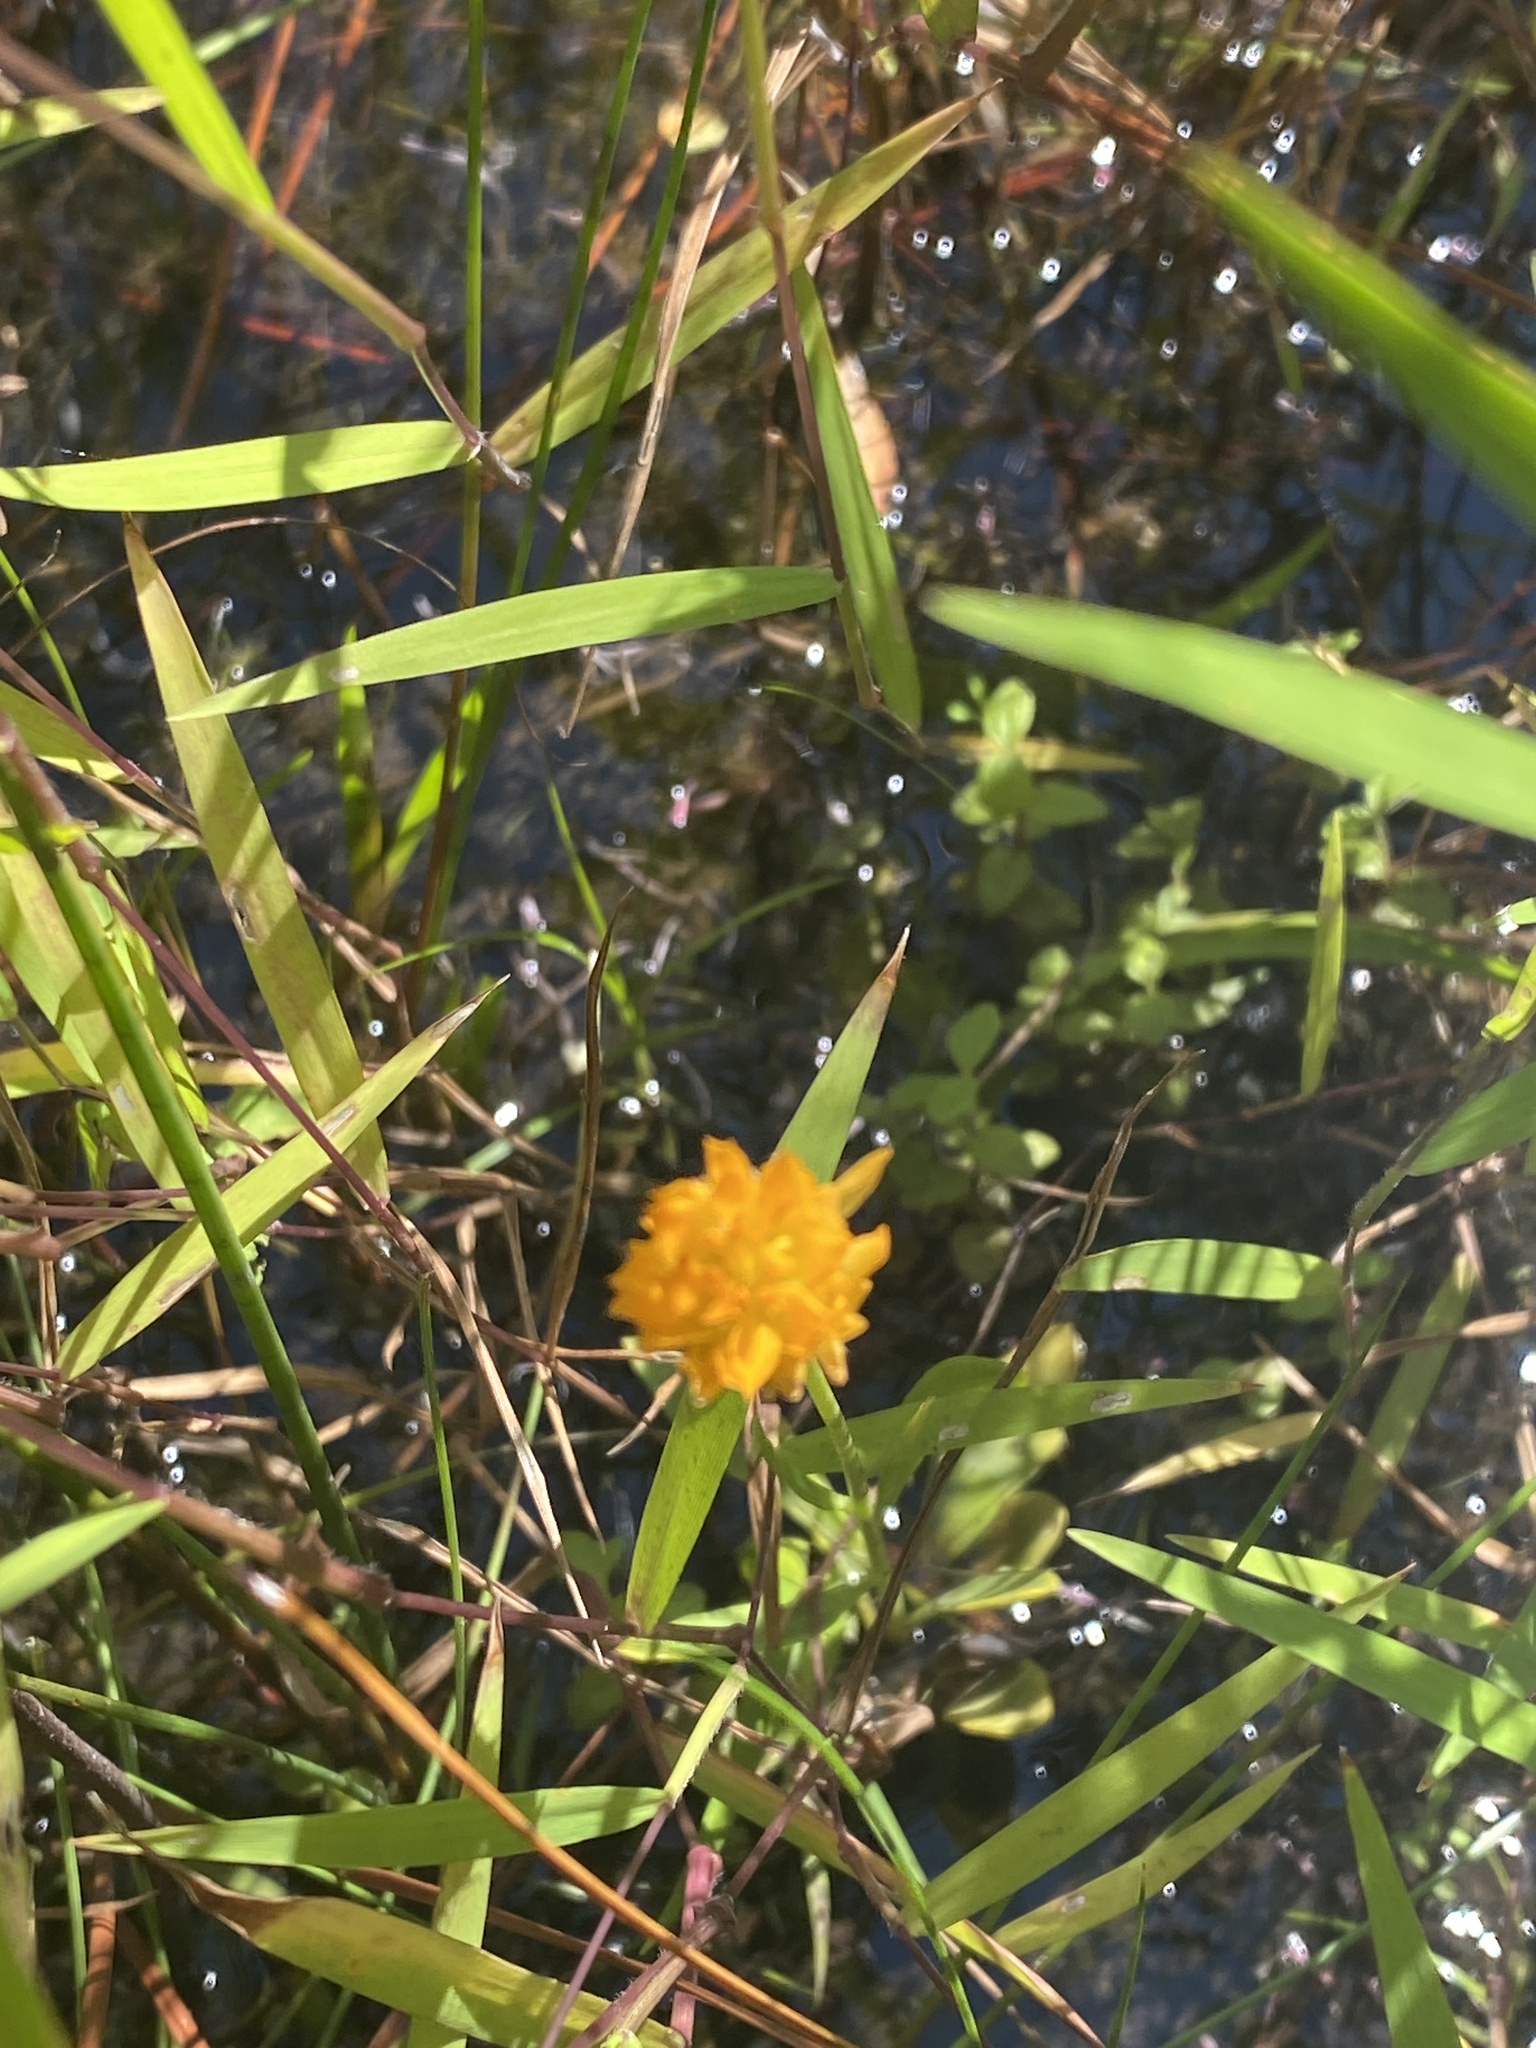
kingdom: Plantae
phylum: Tracheophyta
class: Magnoliopsida
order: Fabales
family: Polygalaceae
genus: Polygala
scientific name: Polygala lutea
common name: Orange milkwort
